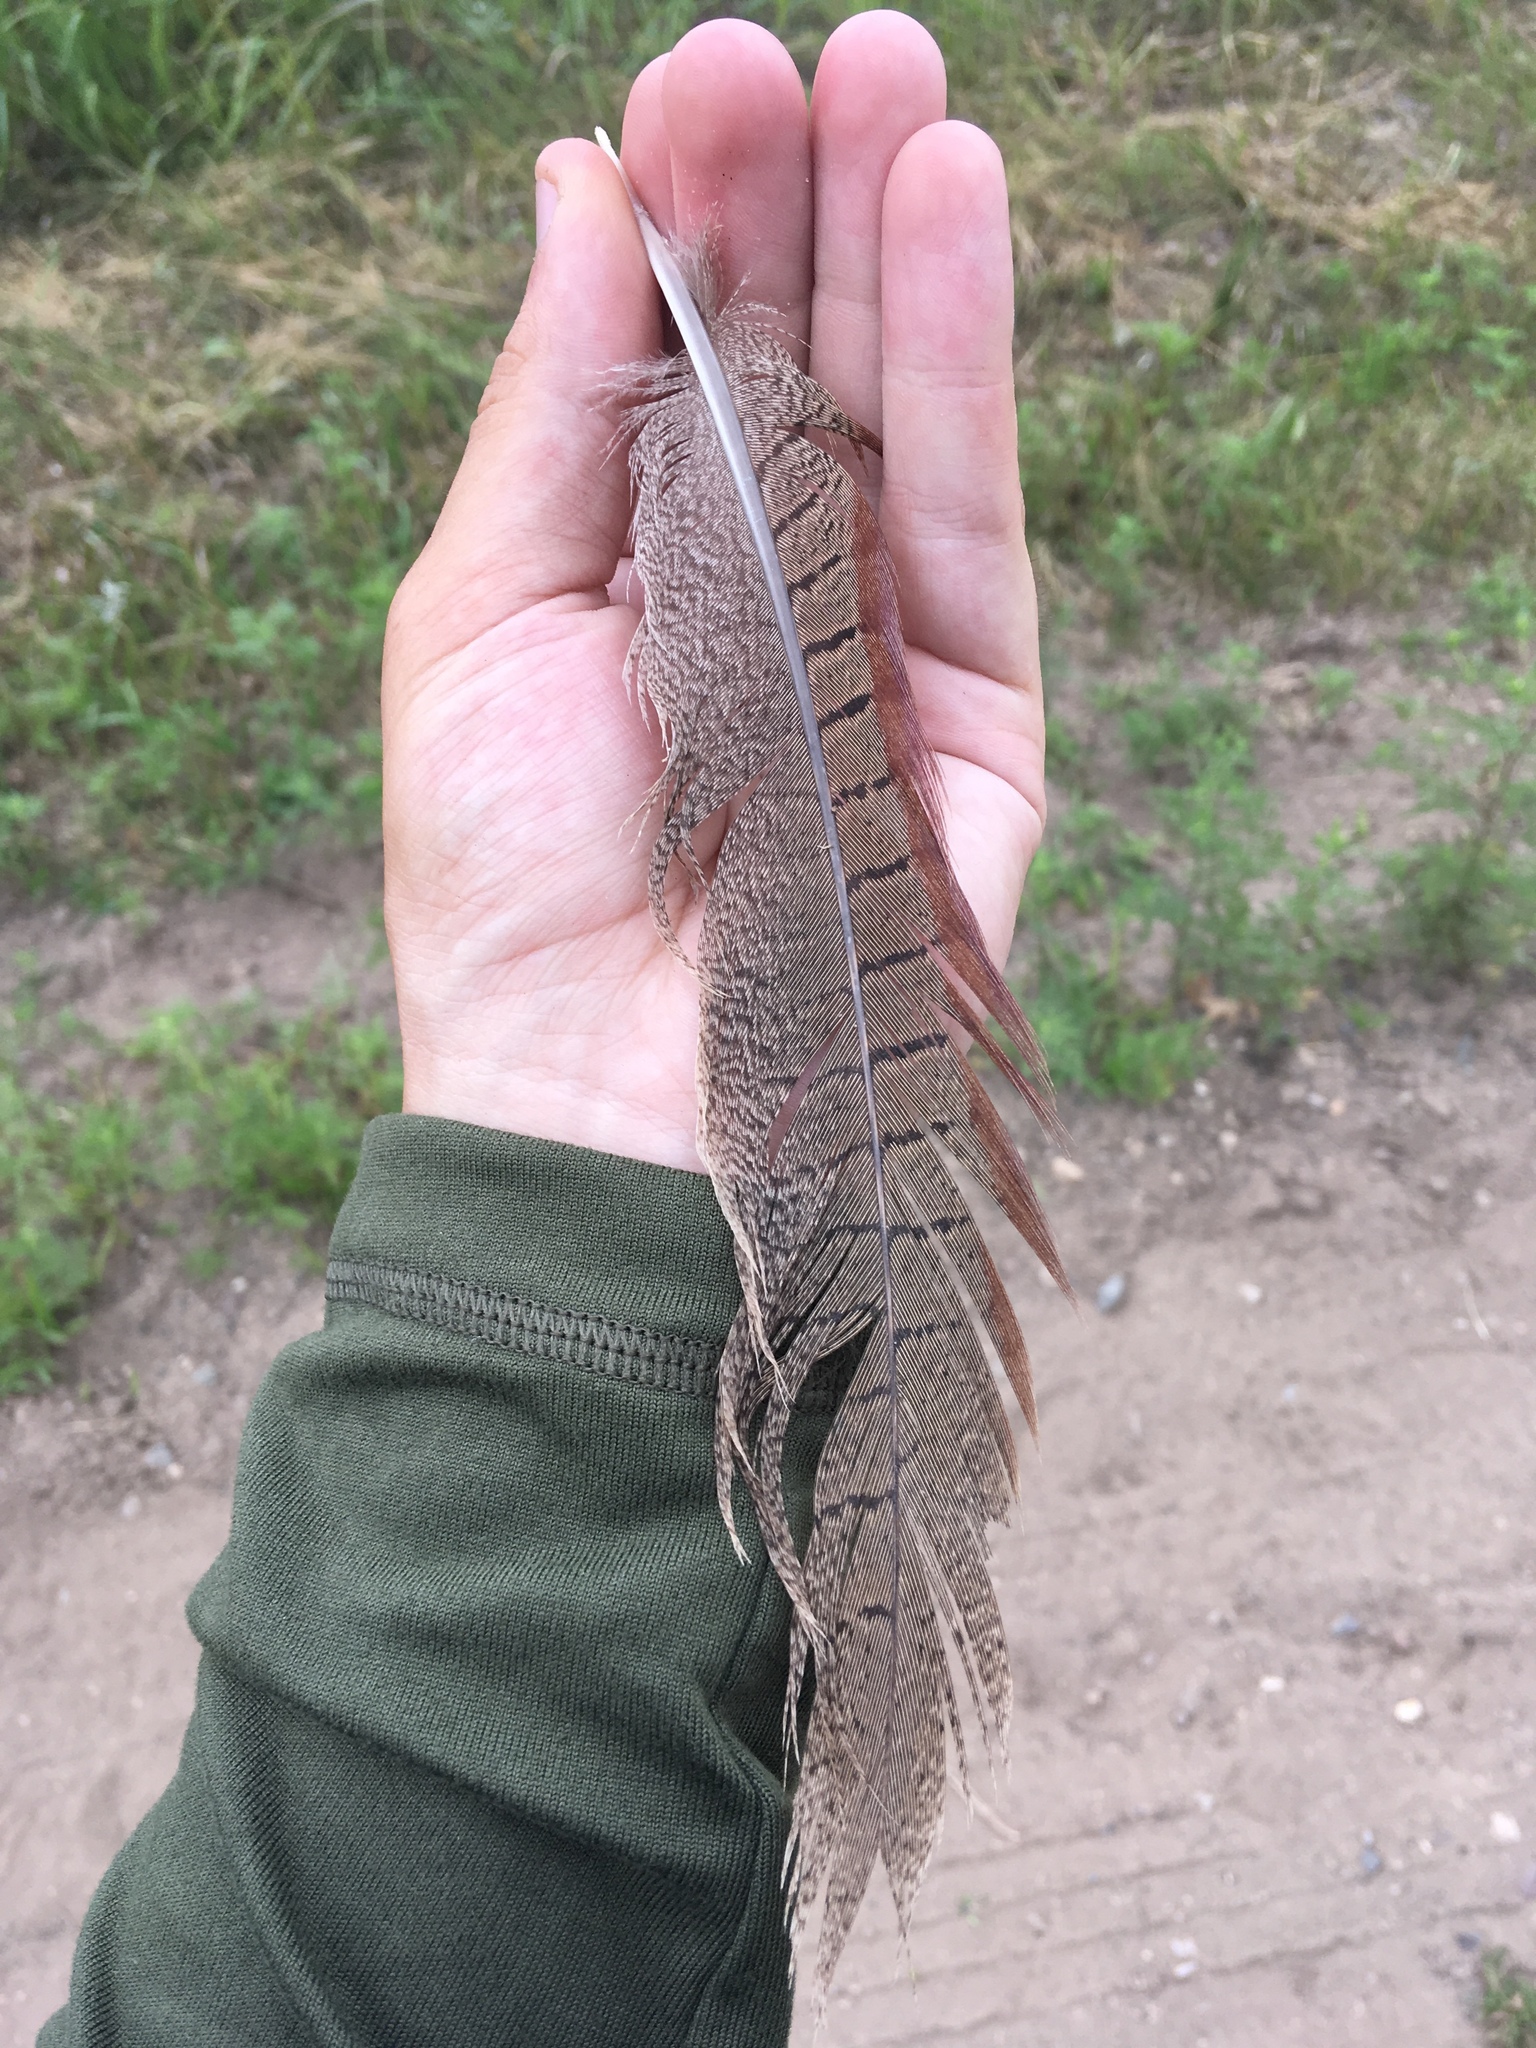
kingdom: Animalia
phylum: Chordata
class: Aves
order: Galliformes
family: Phasianidae
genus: Phasianus
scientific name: Phasianus colchicus
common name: Common pheasant
